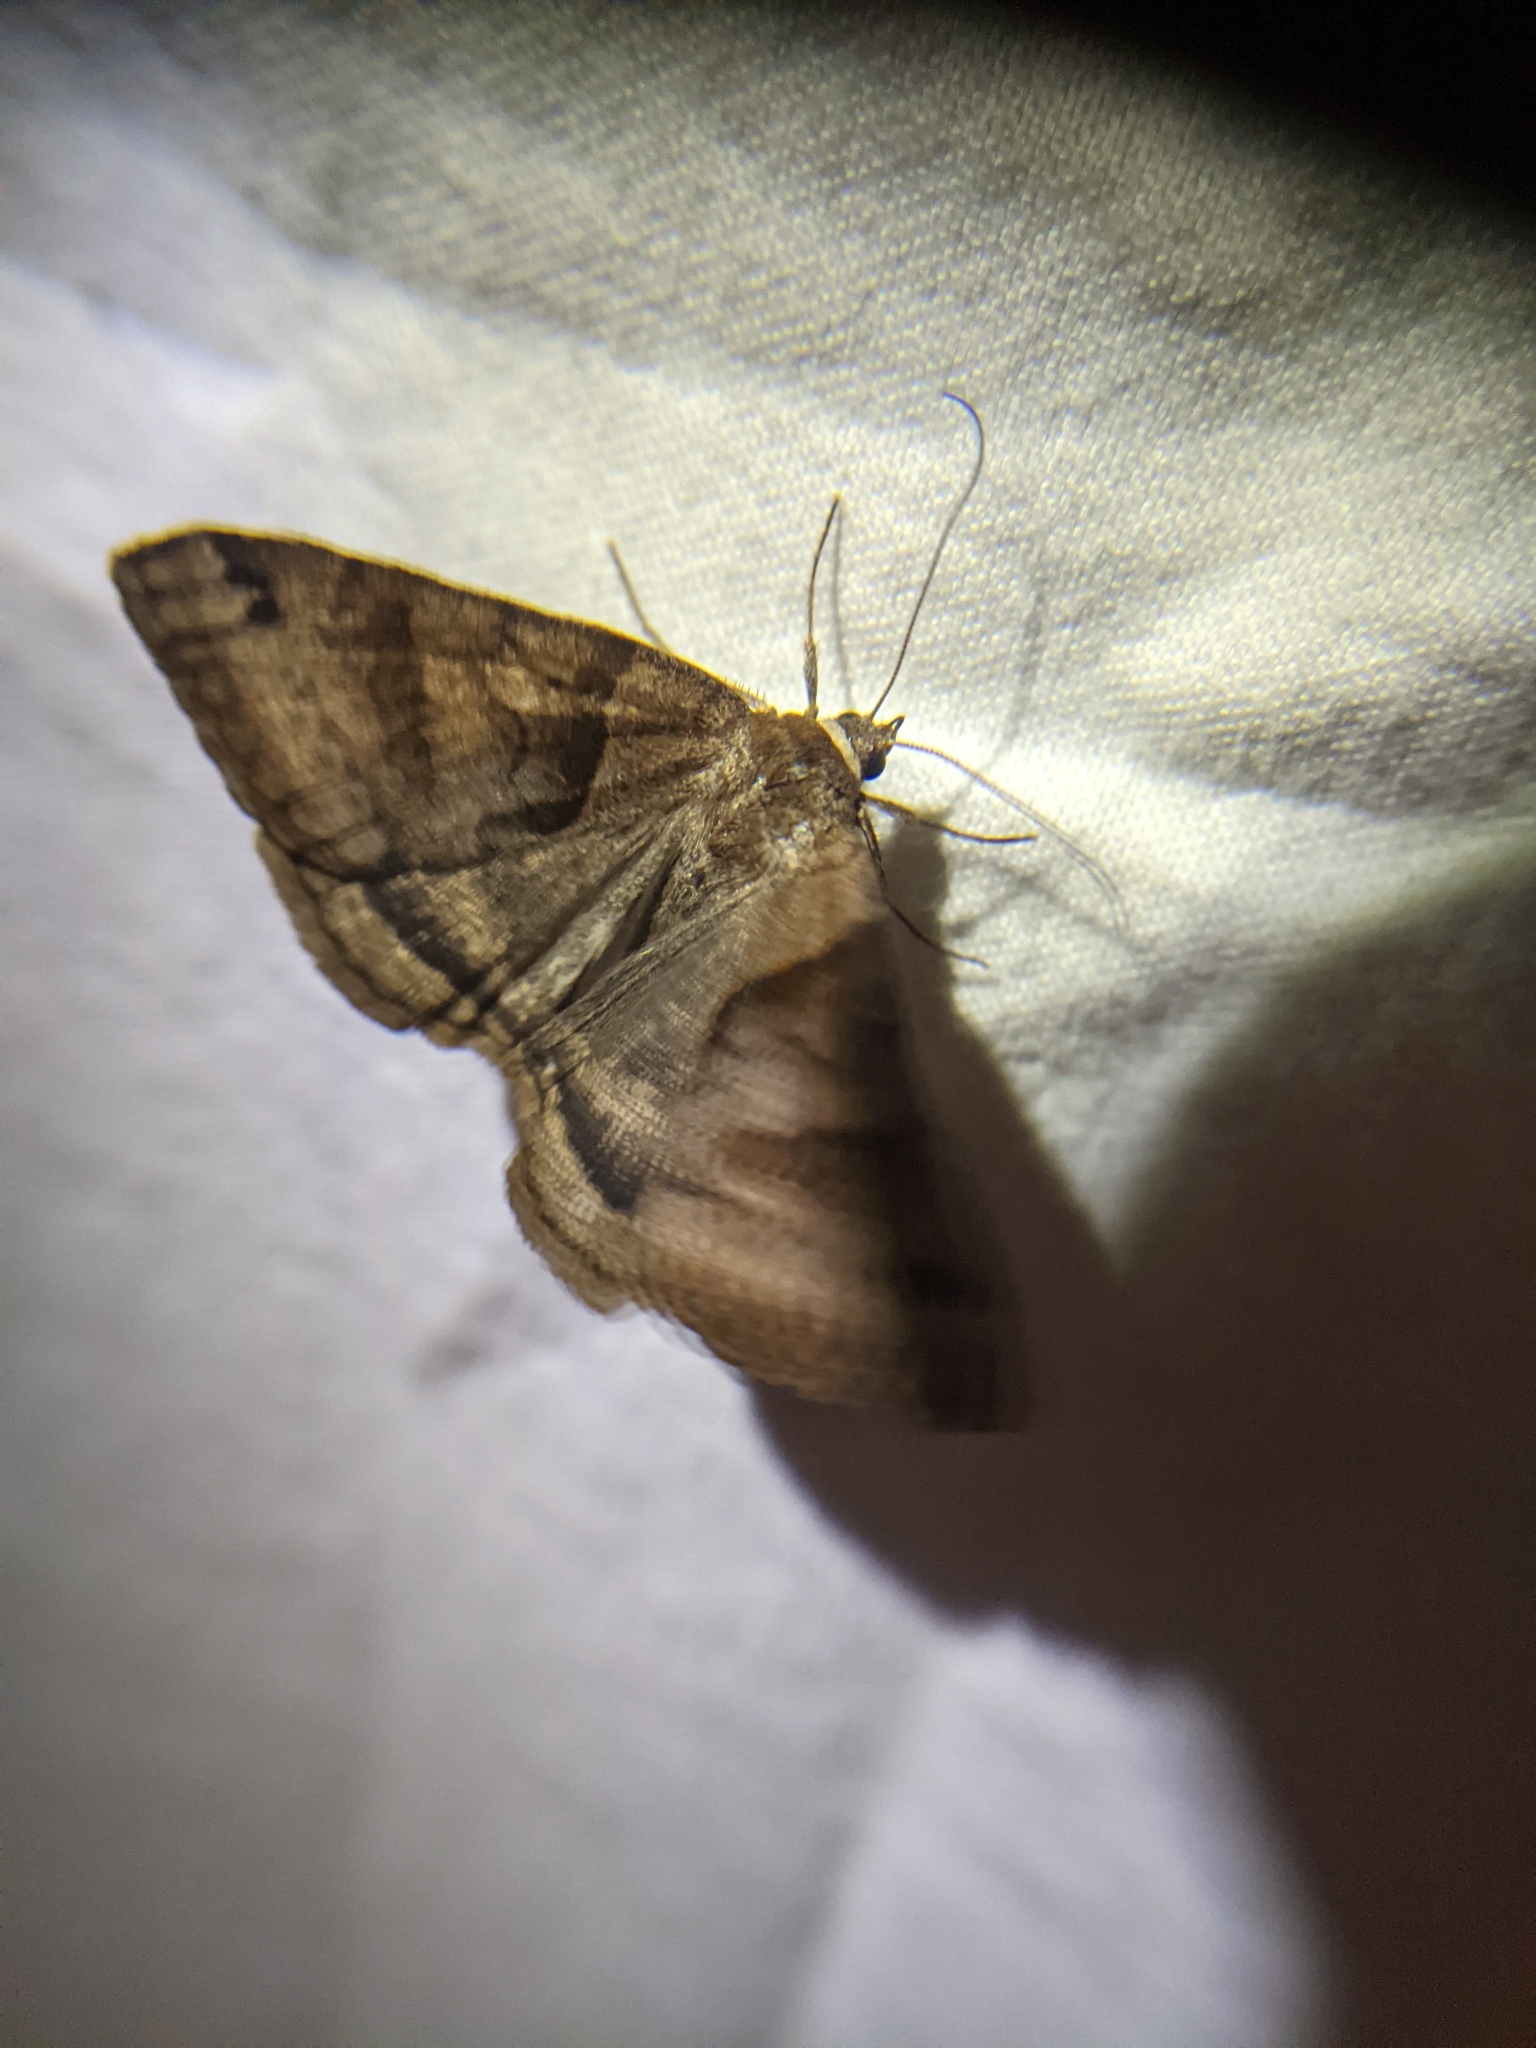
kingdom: Animalia
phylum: Arthropoda
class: Insecta
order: Lepidoptera
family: Erebidae
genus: Caenurgina
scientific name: Caenurgina crassiuscula
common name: Double-barred
